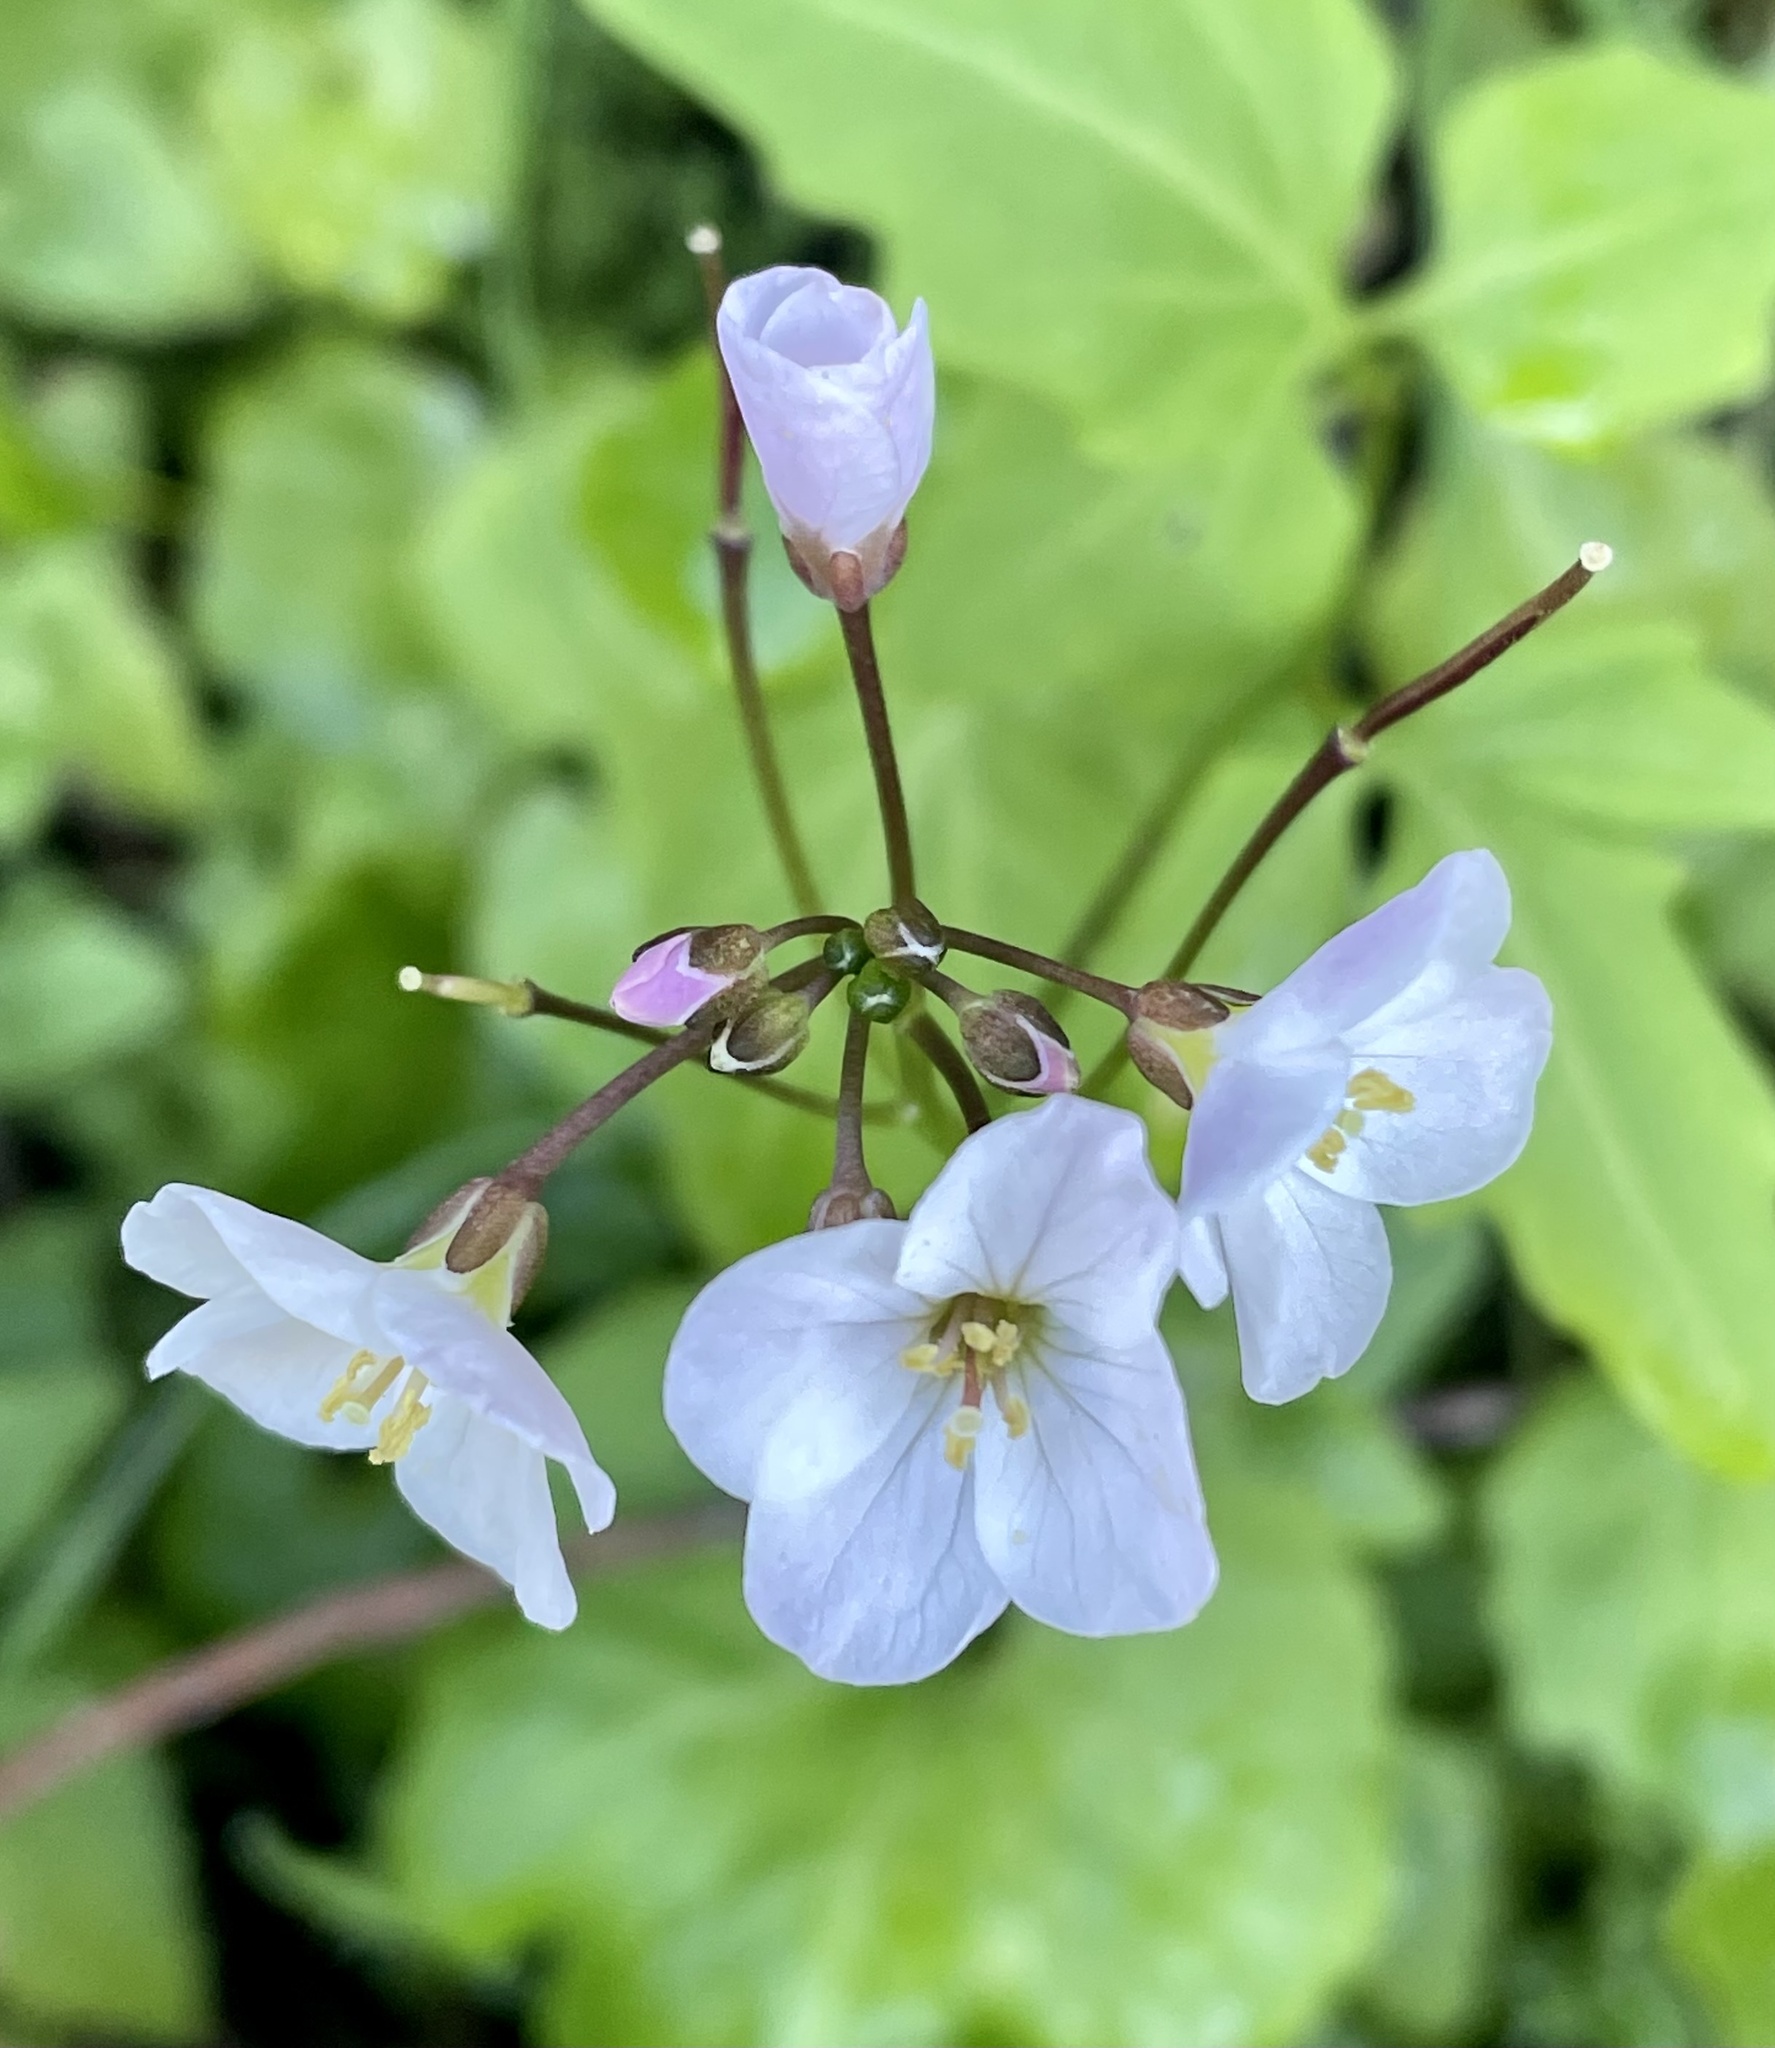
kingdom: Plantae
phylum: Tracheophyta
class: Magnoliopsida
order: Brassicales
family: Brassicaceae
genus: Cardamine
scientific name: Cardamine californica
